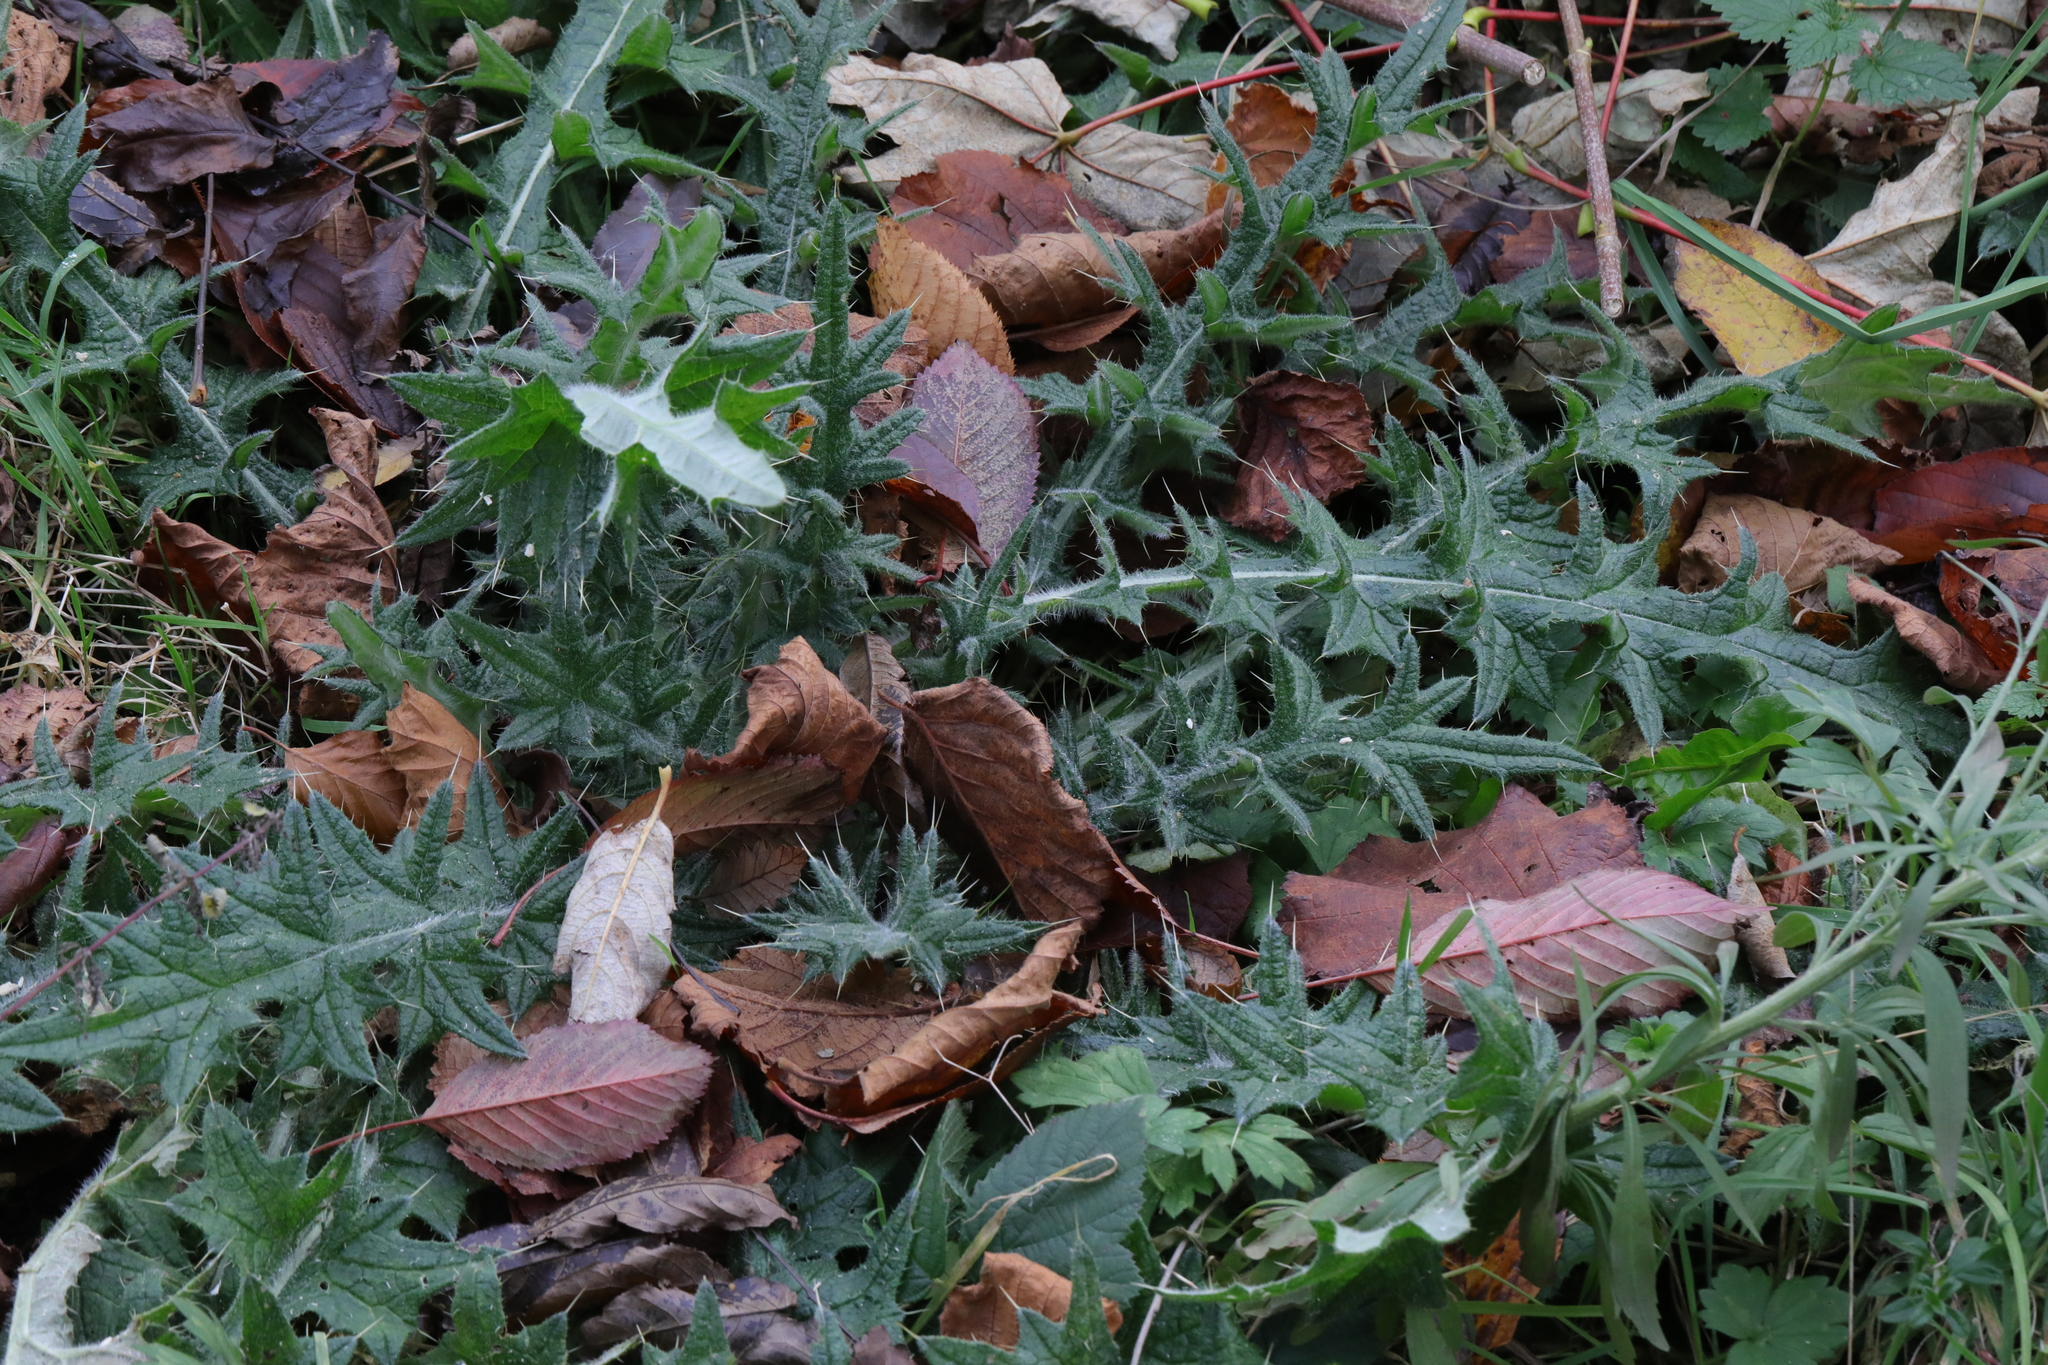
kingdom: Plantae
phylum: Tracheophyta
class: Magnoliopsida
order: Asterales
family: Asteraceae
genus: Cirsium
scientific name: Cirsium vulgare
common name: Bull thistle
